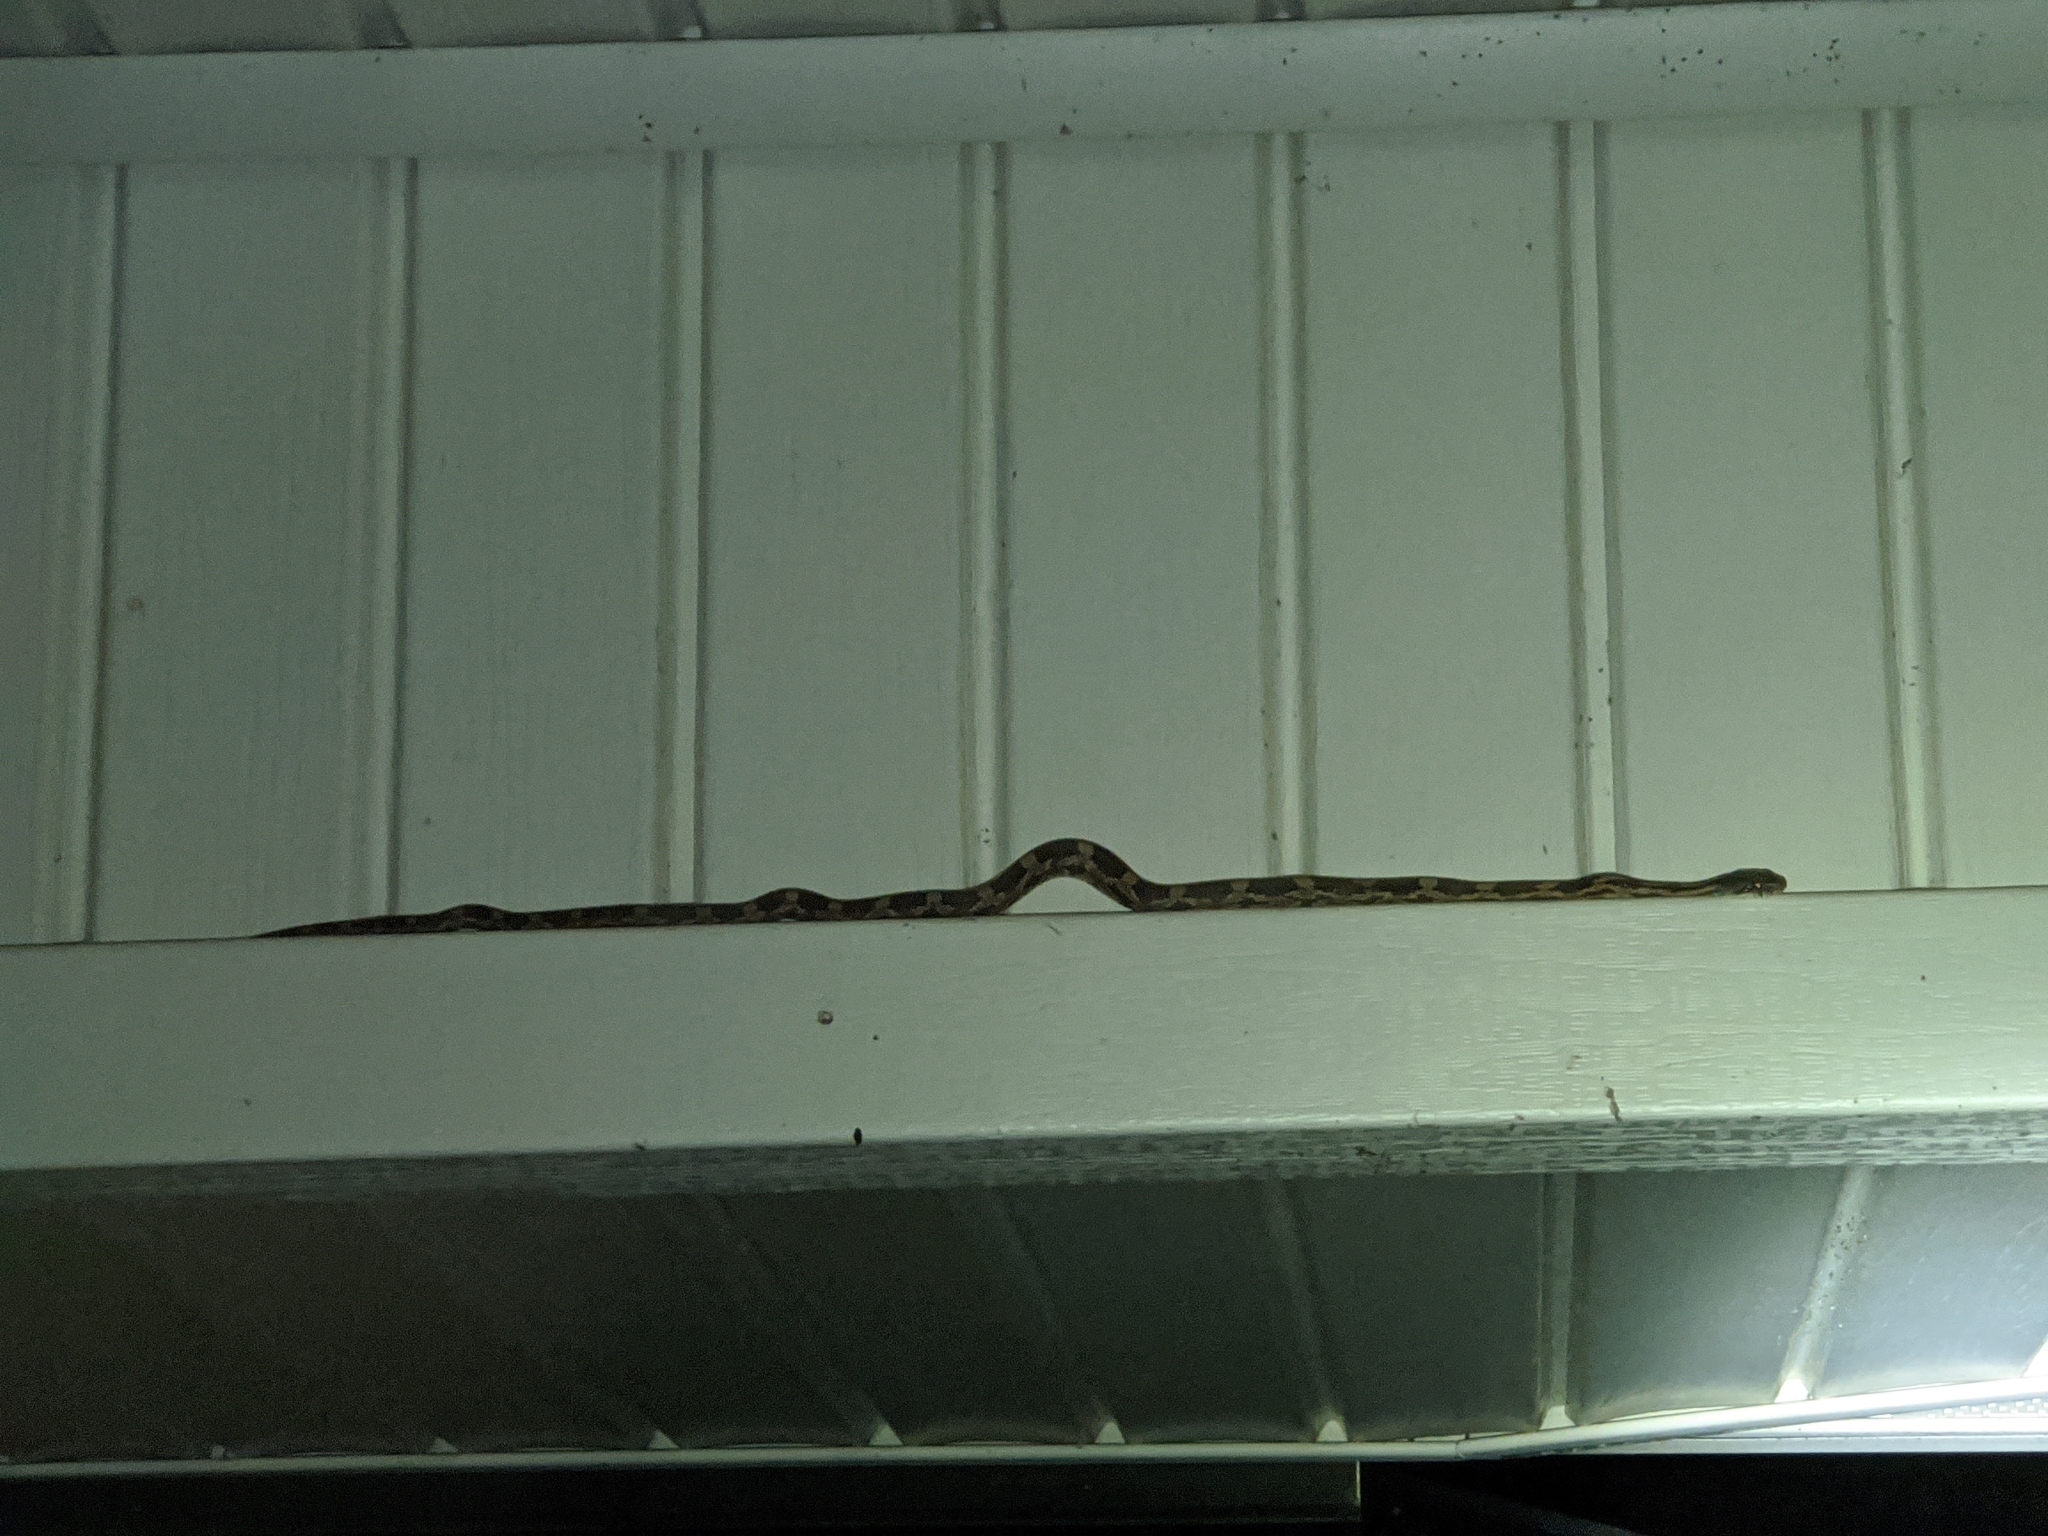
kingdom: Animalia
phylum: Chordata
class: Squamata
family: Colubridae
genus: Pantherophis
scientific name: Pantherophis spiloides
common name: Gray rat snake
